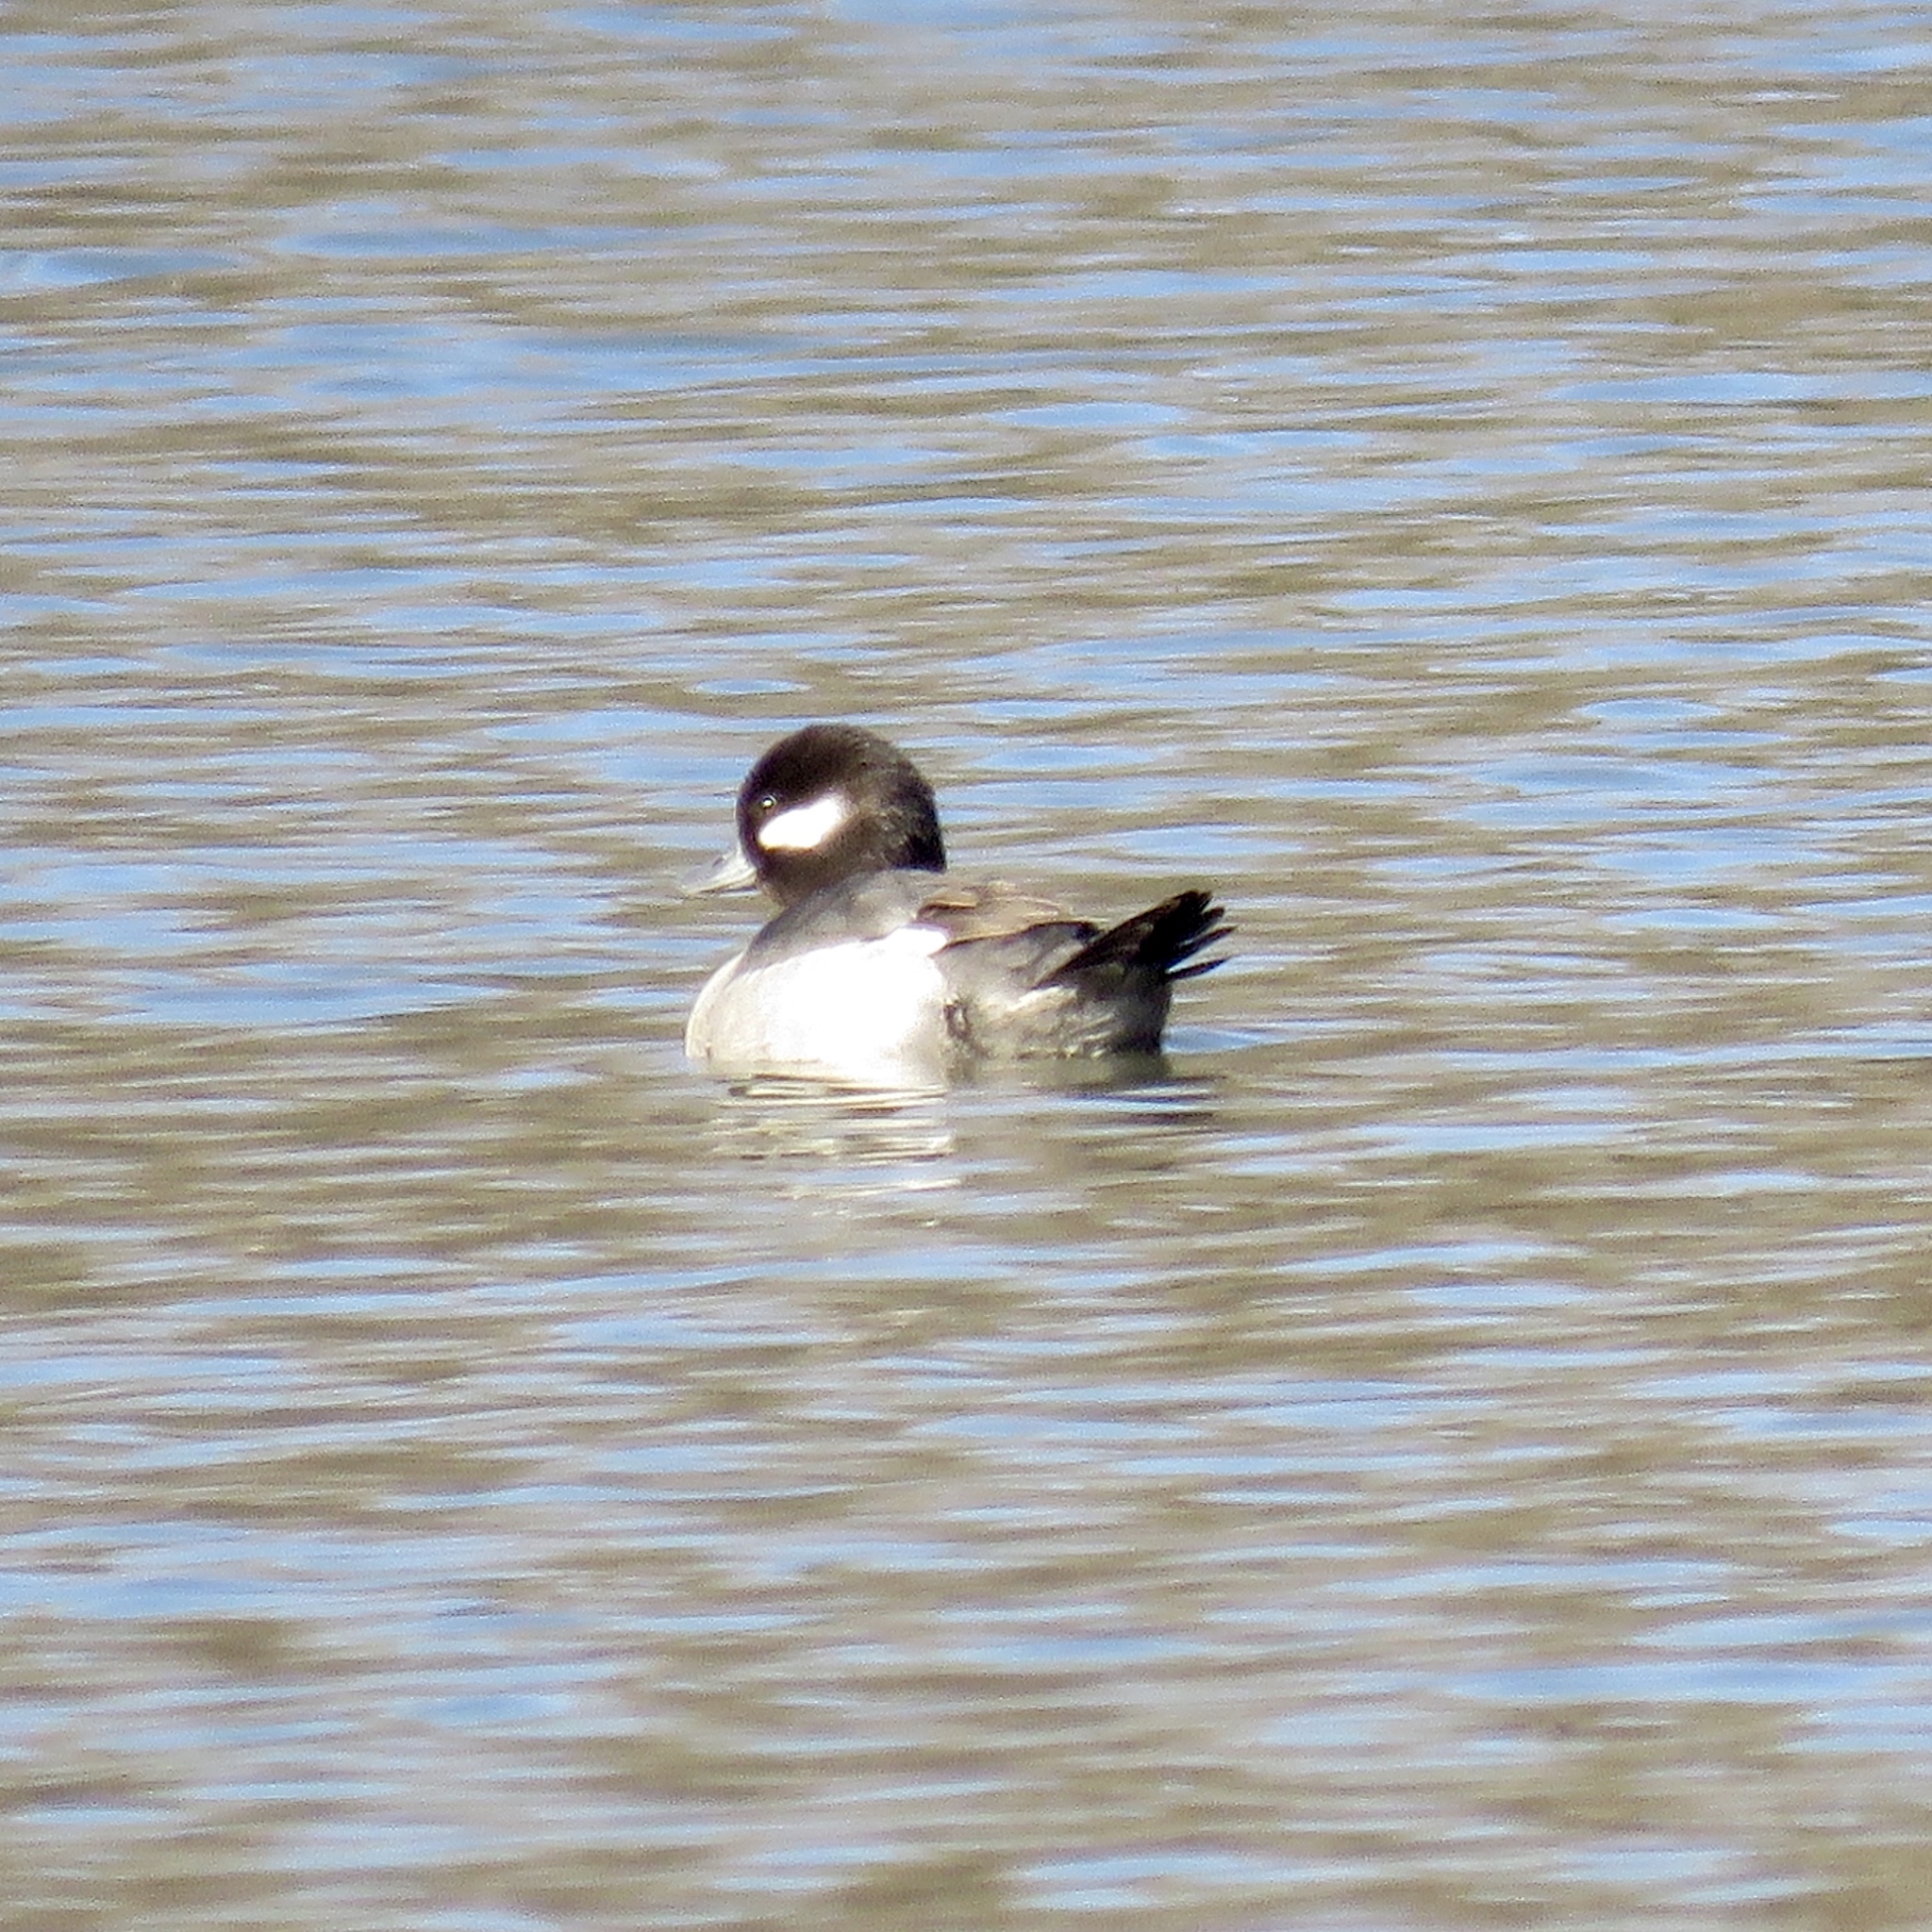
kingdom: Animalia
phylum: Chordata
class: Aves
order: Anseriformes
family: Anatidae
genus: Bucephala
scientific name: Bucephala albeola
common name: Bufflehead
